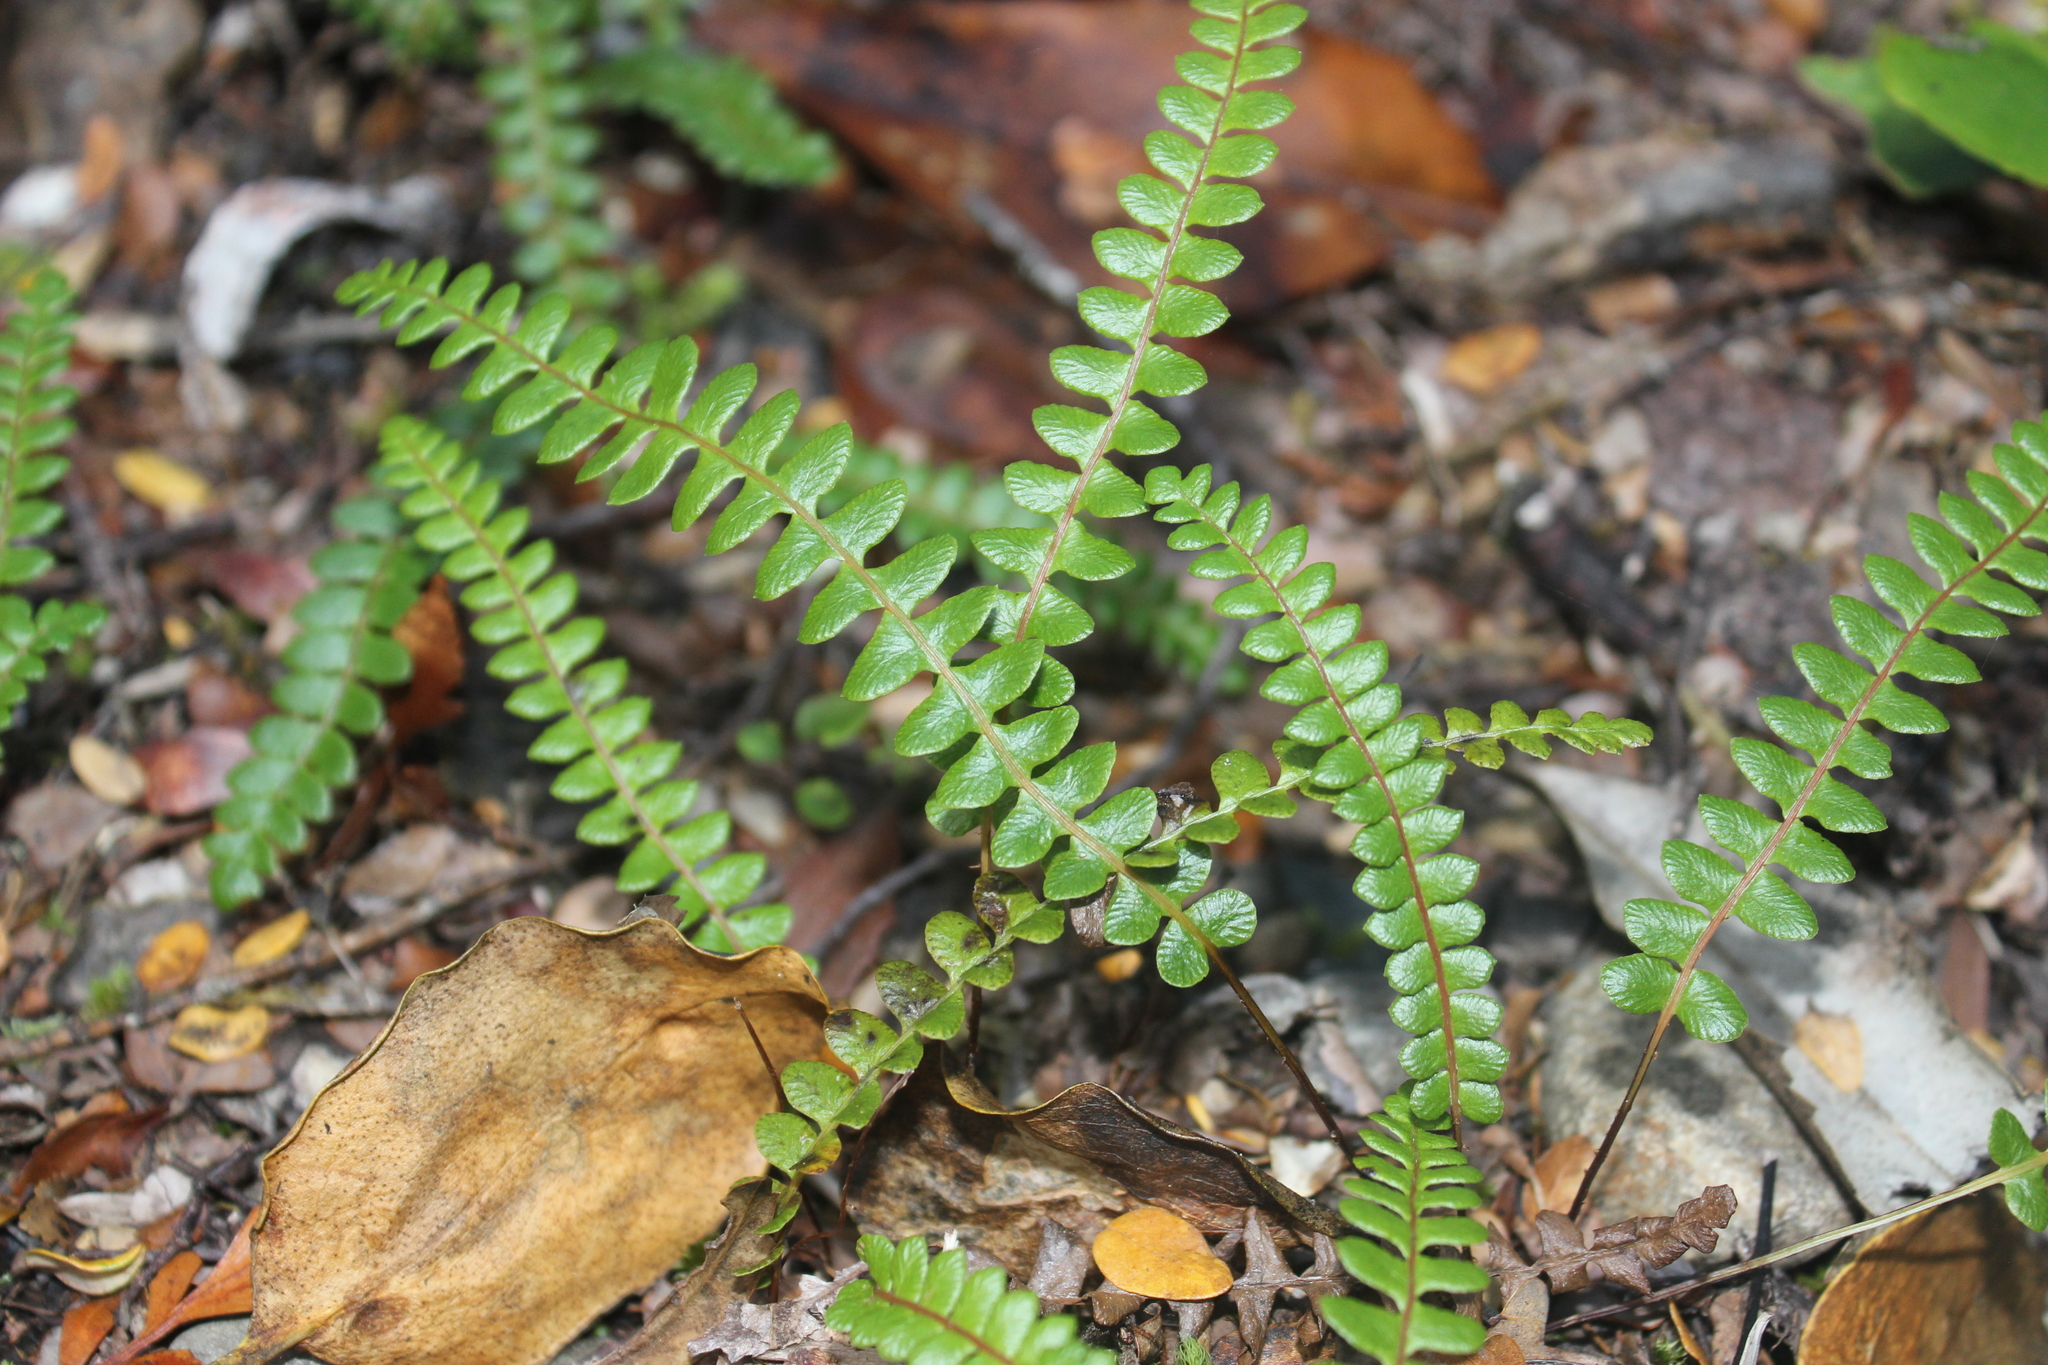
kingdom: Plantae
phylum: Tracheophyta
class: Polypodiopsida
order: Polypodiales
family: Blechnaceae
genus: Austroblechnum
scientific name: Austroblechnum penna-marina
